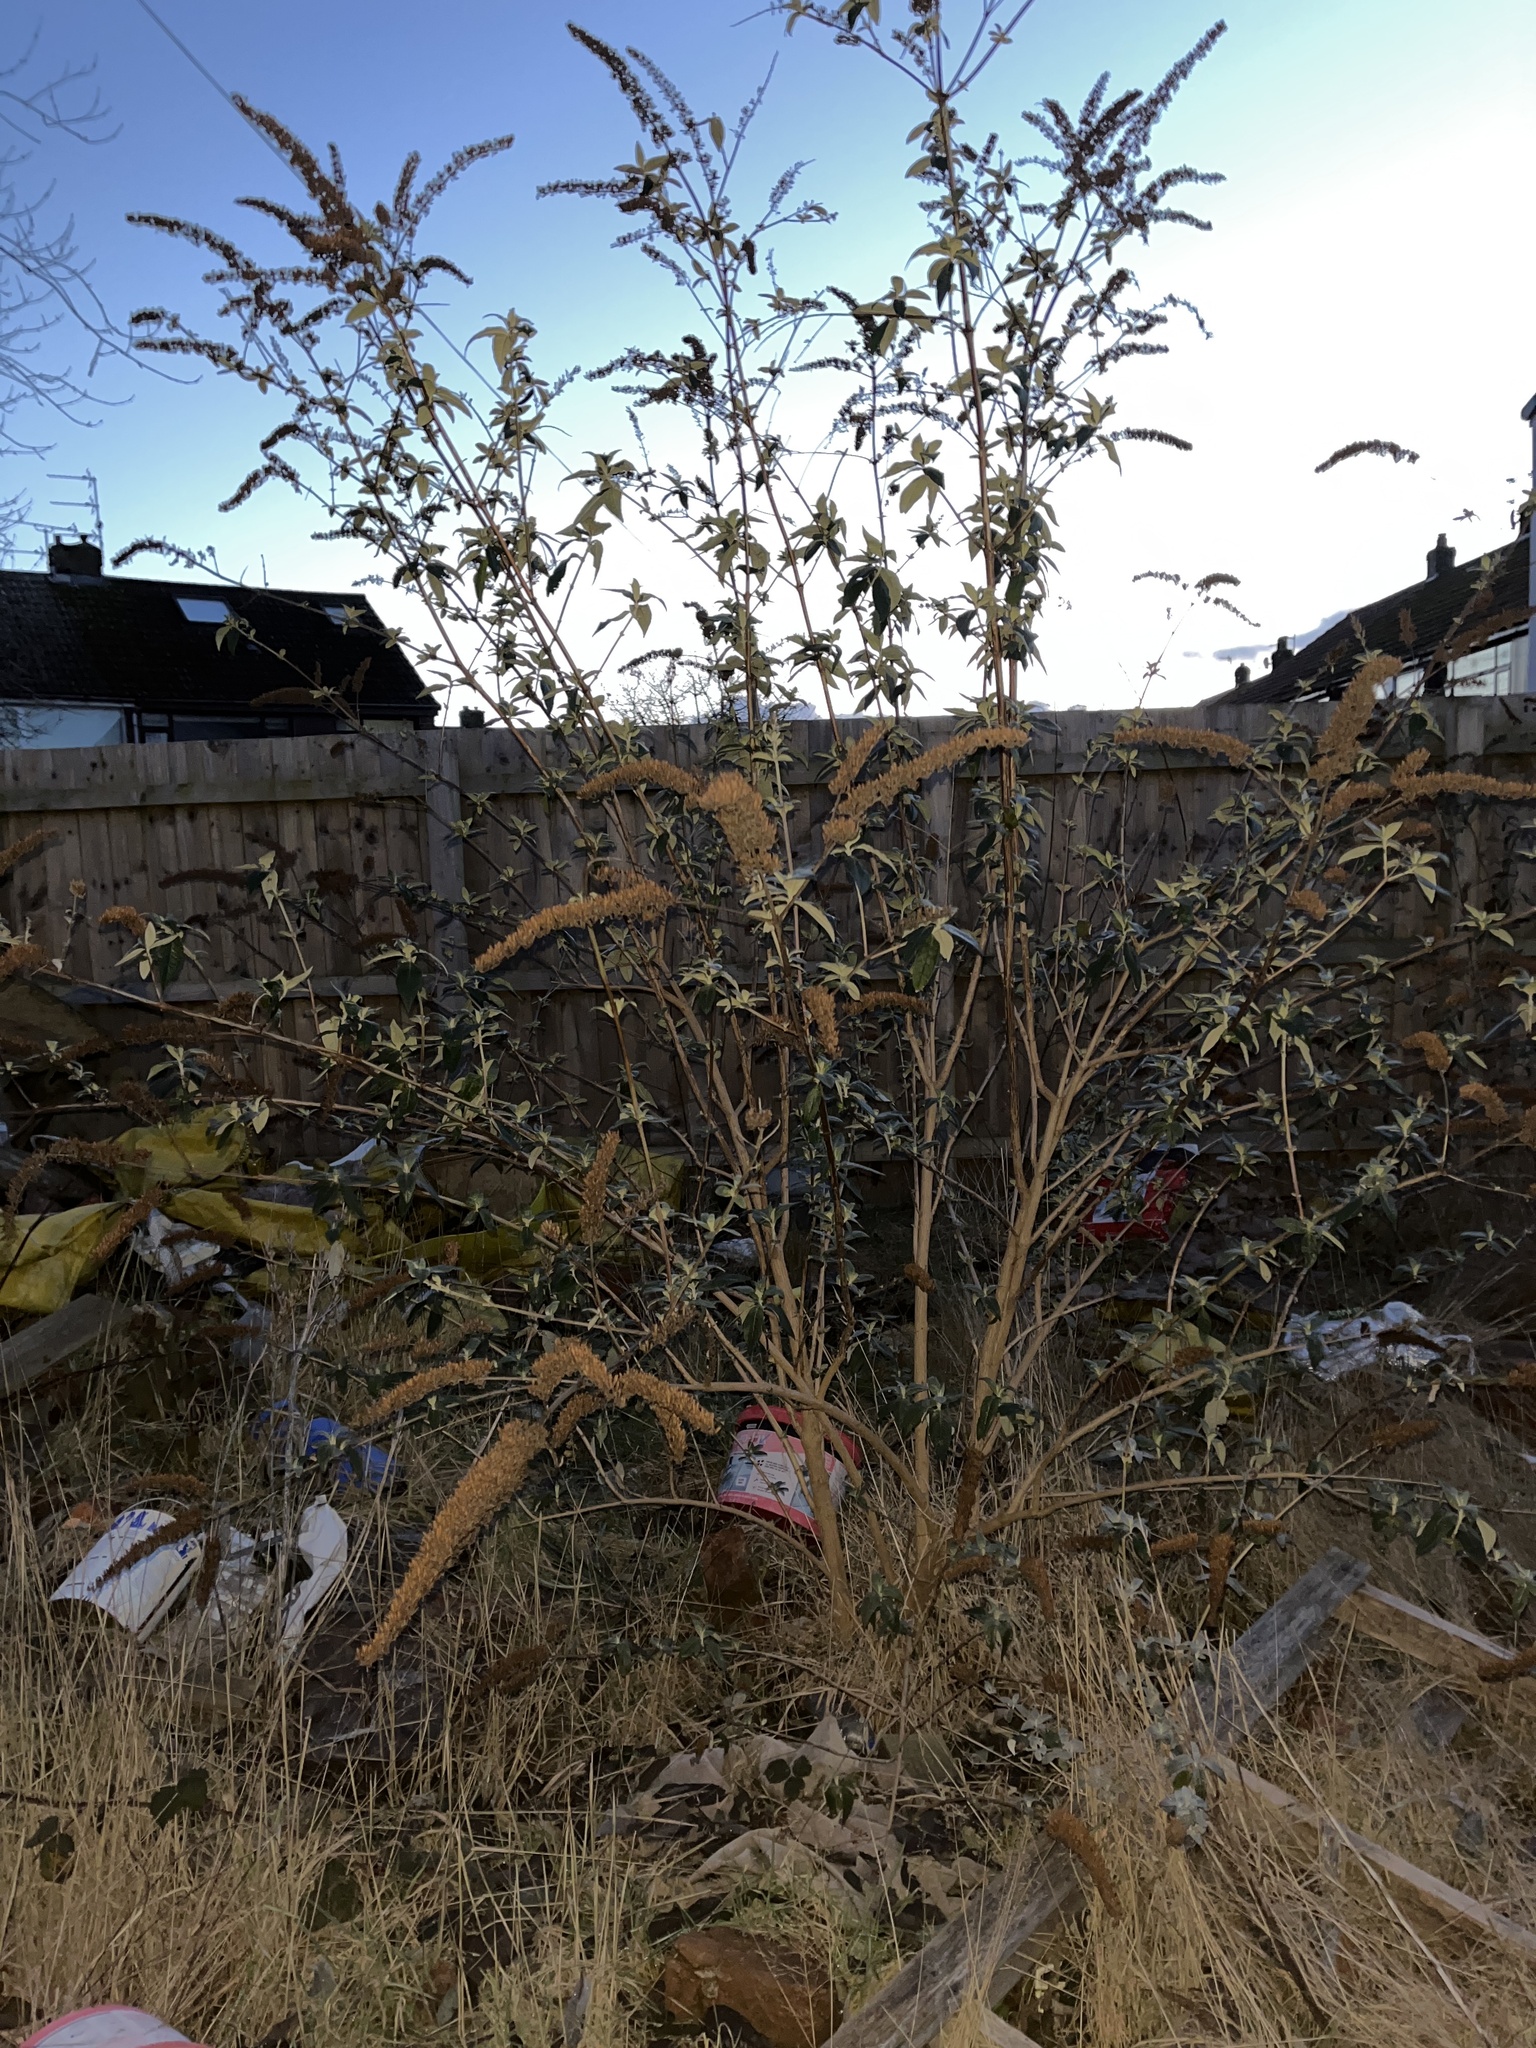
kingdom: Plantae
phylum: Tracheophyta
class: Magnoliopsida
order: Lamiales
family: Scrophulariaceae
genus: Buddleja
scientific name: Buddleja davidii
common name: Butterfly-bush
